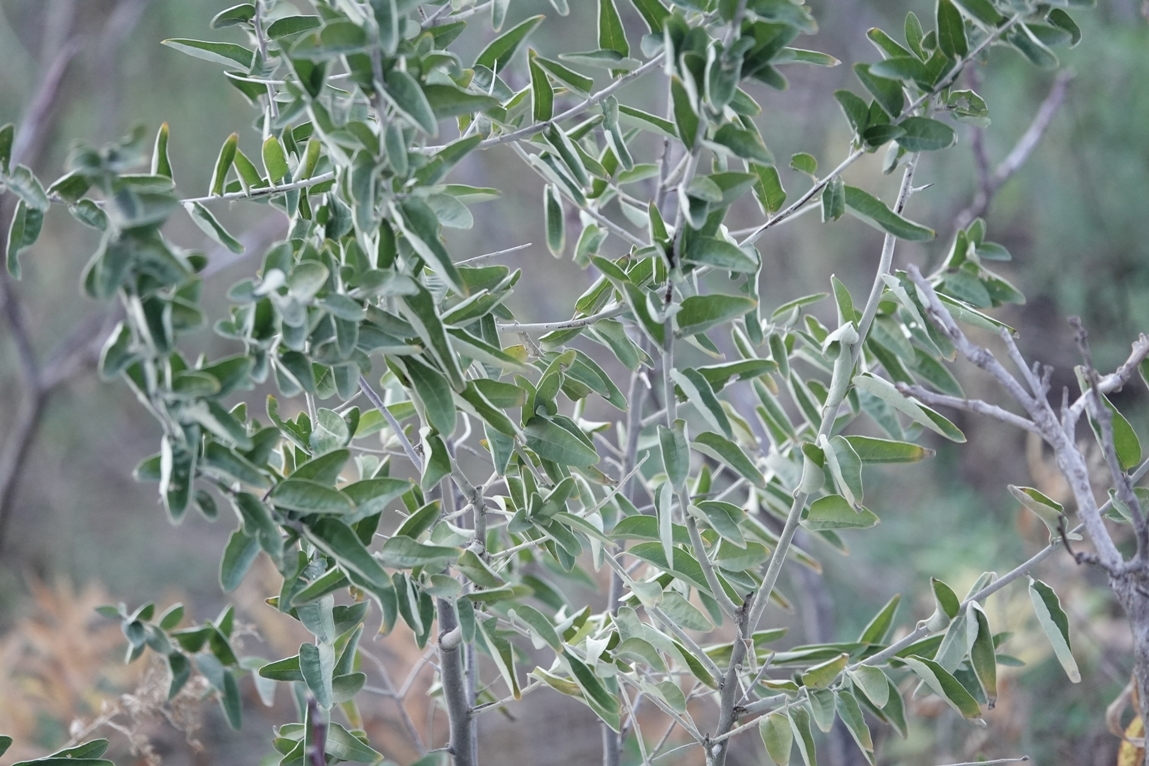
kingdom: Plantae
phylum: Tracheophyta
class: Magnoliopsida
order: Rosales
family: Elaeagnaceae
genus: Elaeagnus
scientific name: Elaeagnus angustifolia
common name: Russian olive
